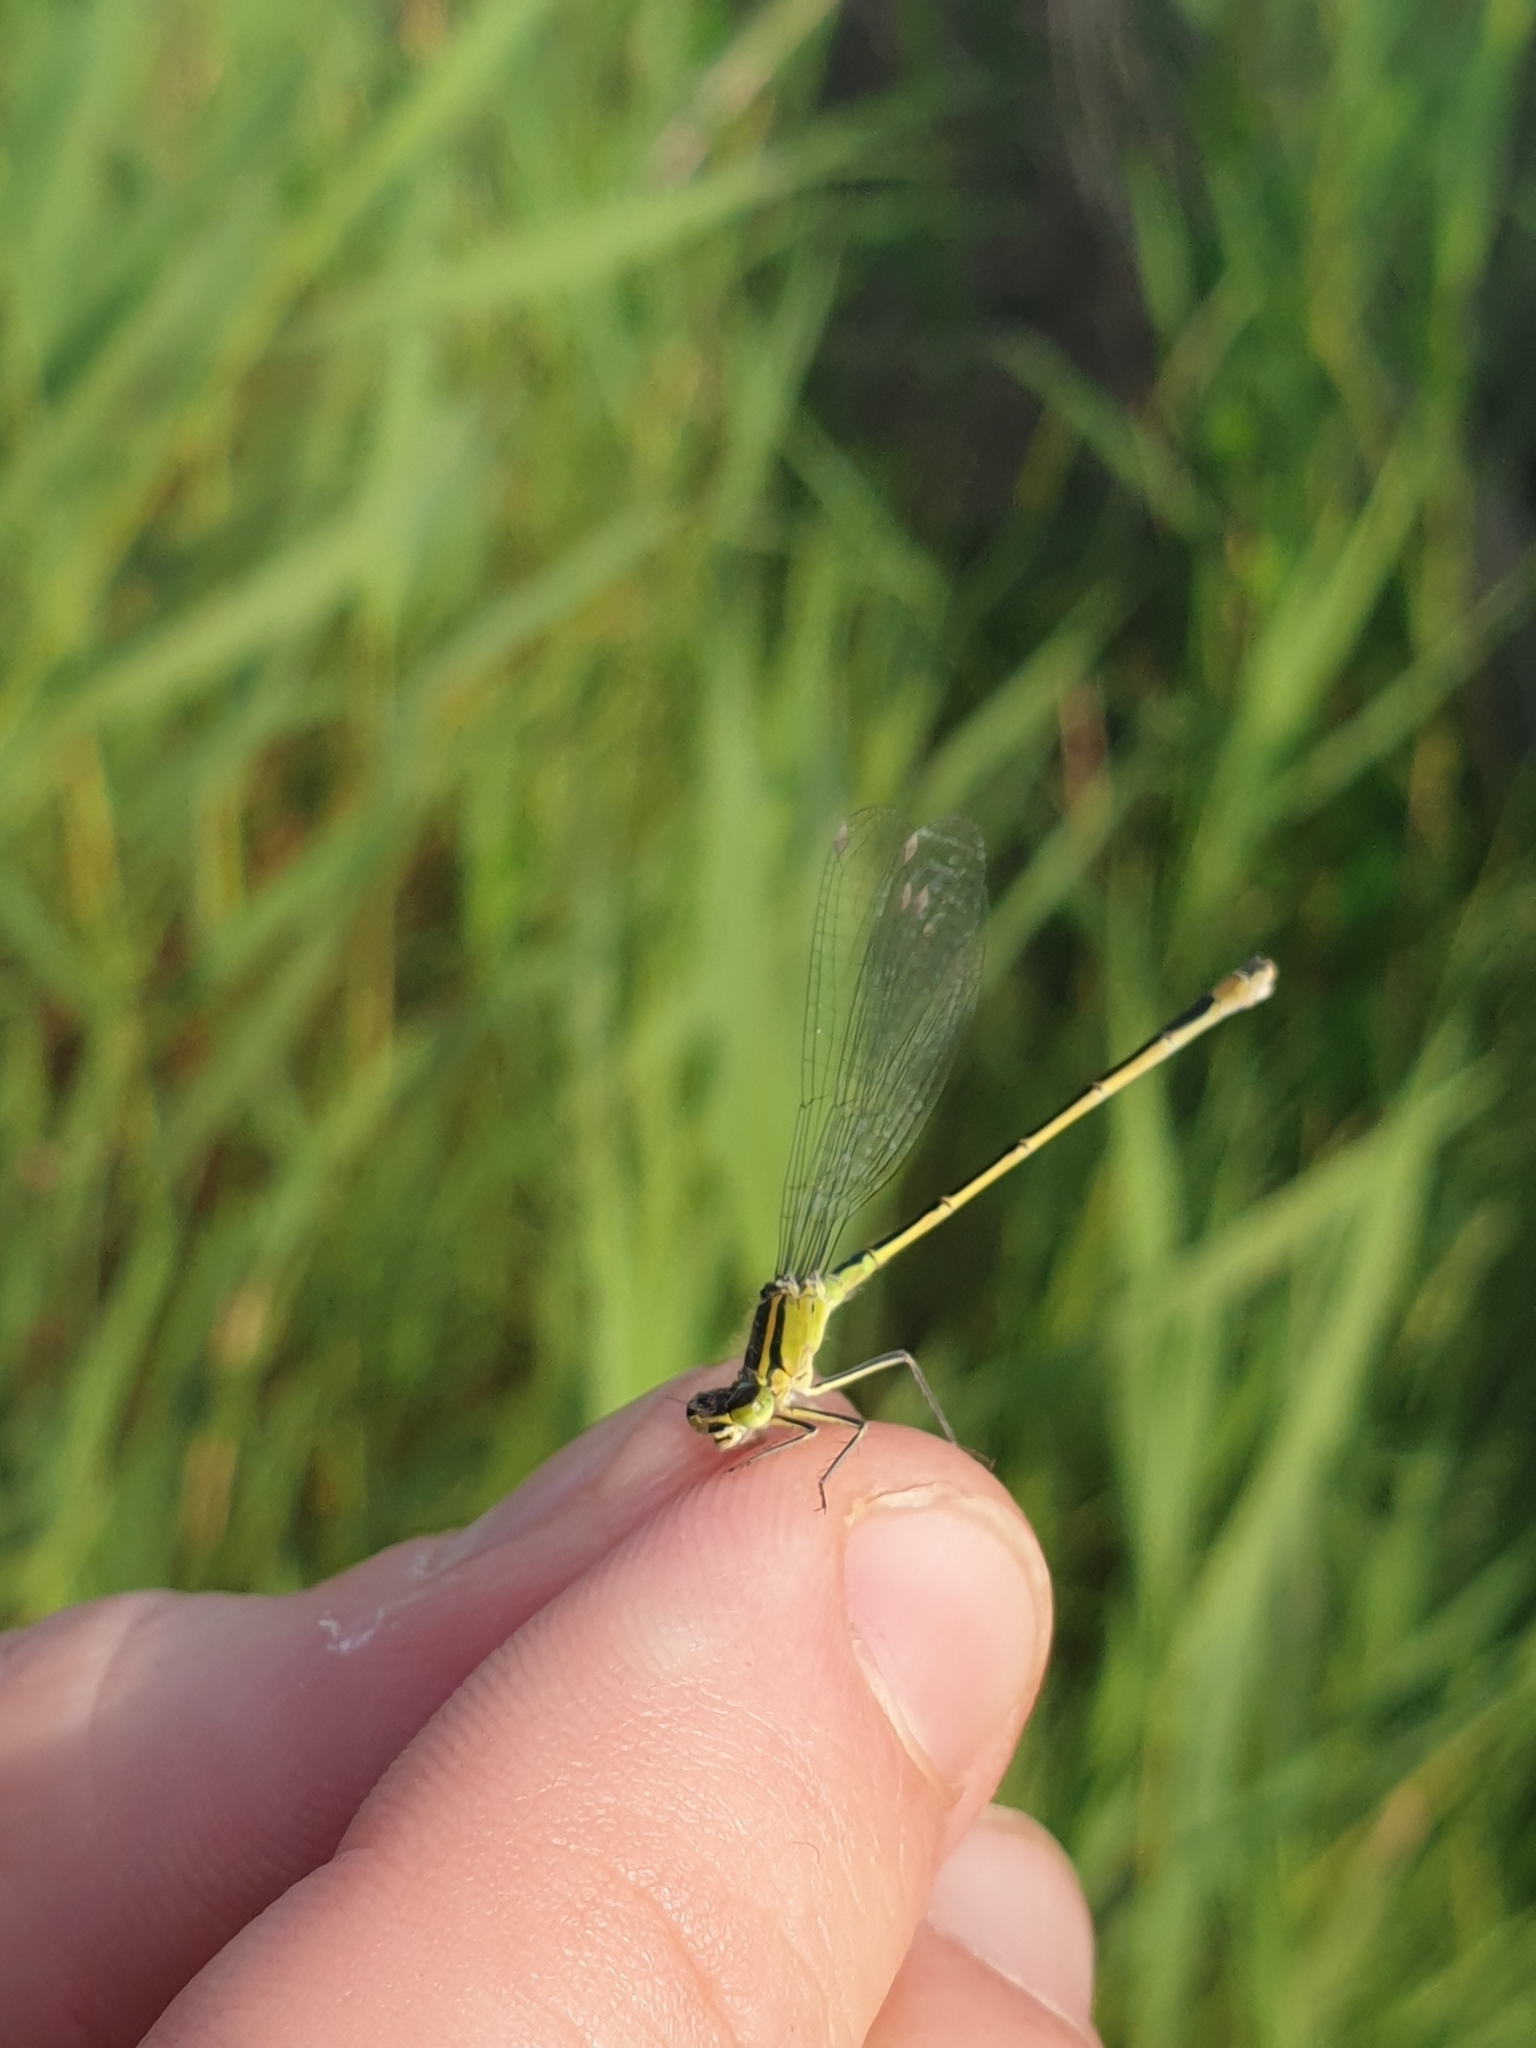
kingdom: Animalia
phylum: Arthropoda
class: Insecta
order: Odonata
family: Coenagrionidae
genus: Ischnura
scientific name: Ischnura elegans
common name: Blue-tailed damselfly
